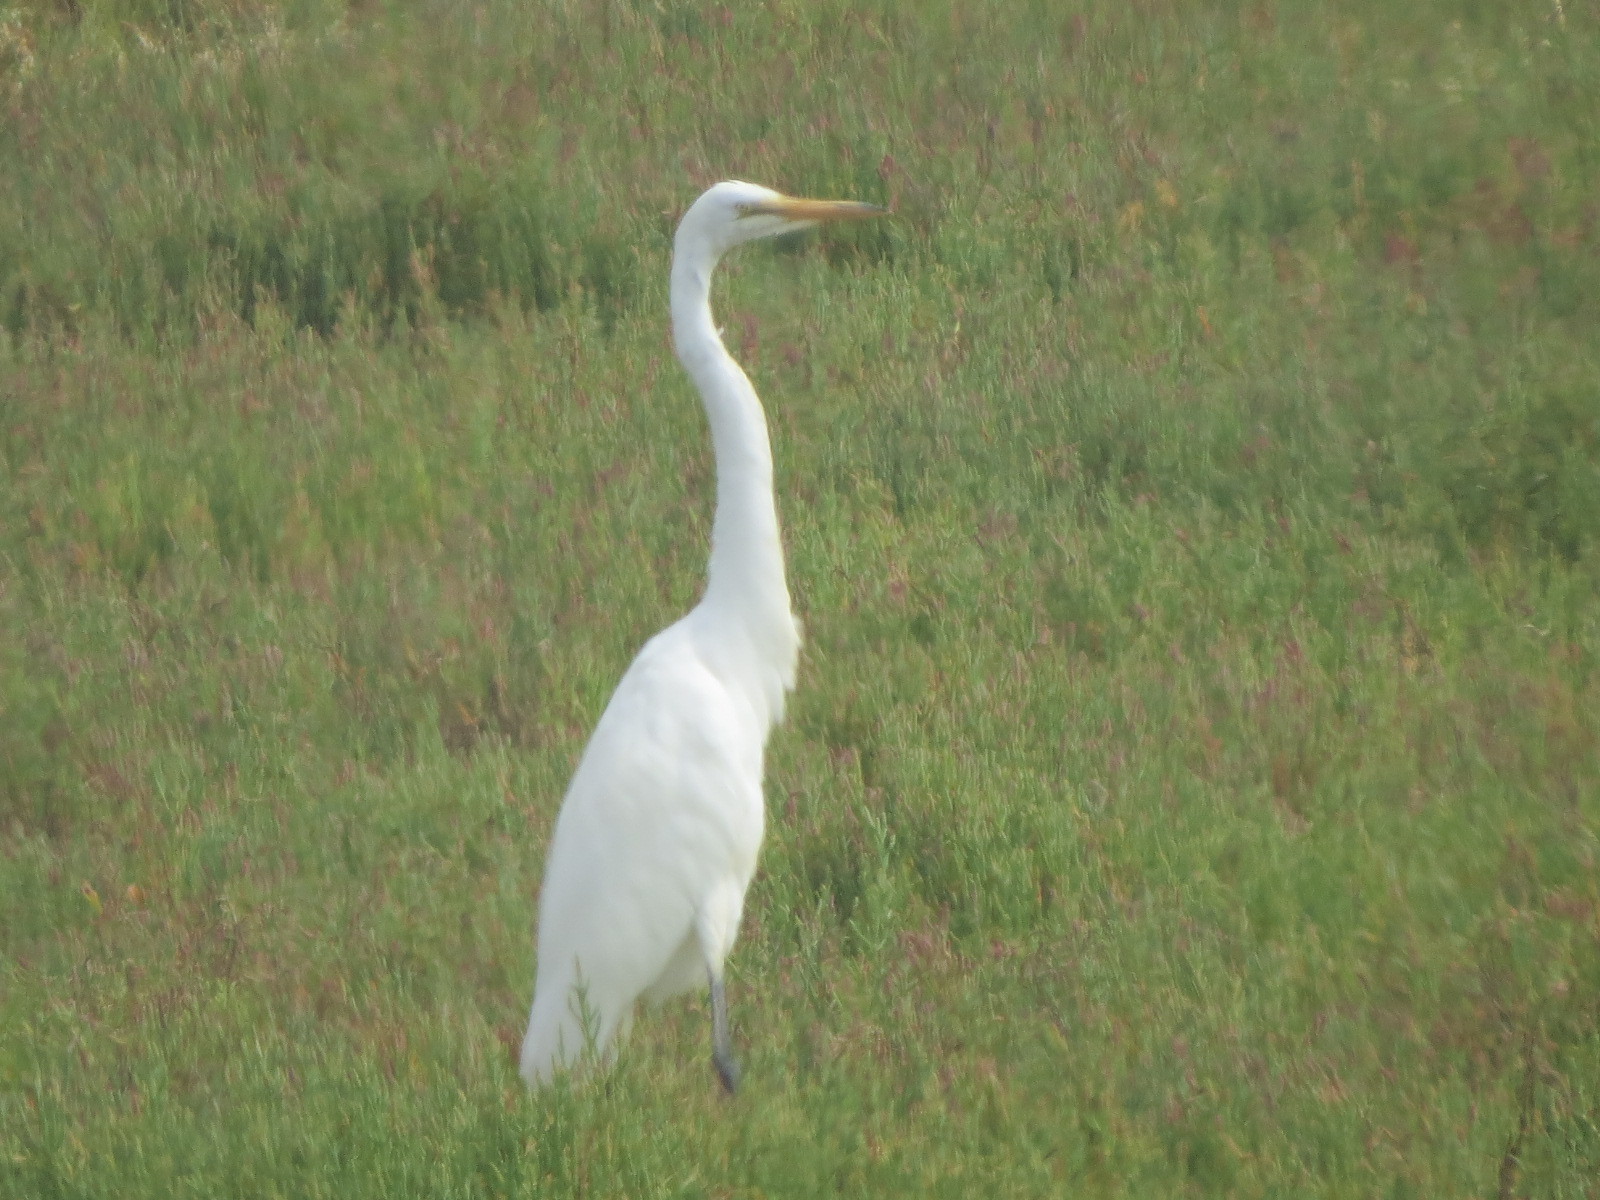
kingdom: Animalia
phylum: Chordata
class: Aves
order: Pelecaniformes
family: Ardeidae
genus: Ardea
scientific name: Ardea alba
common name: Great egret
